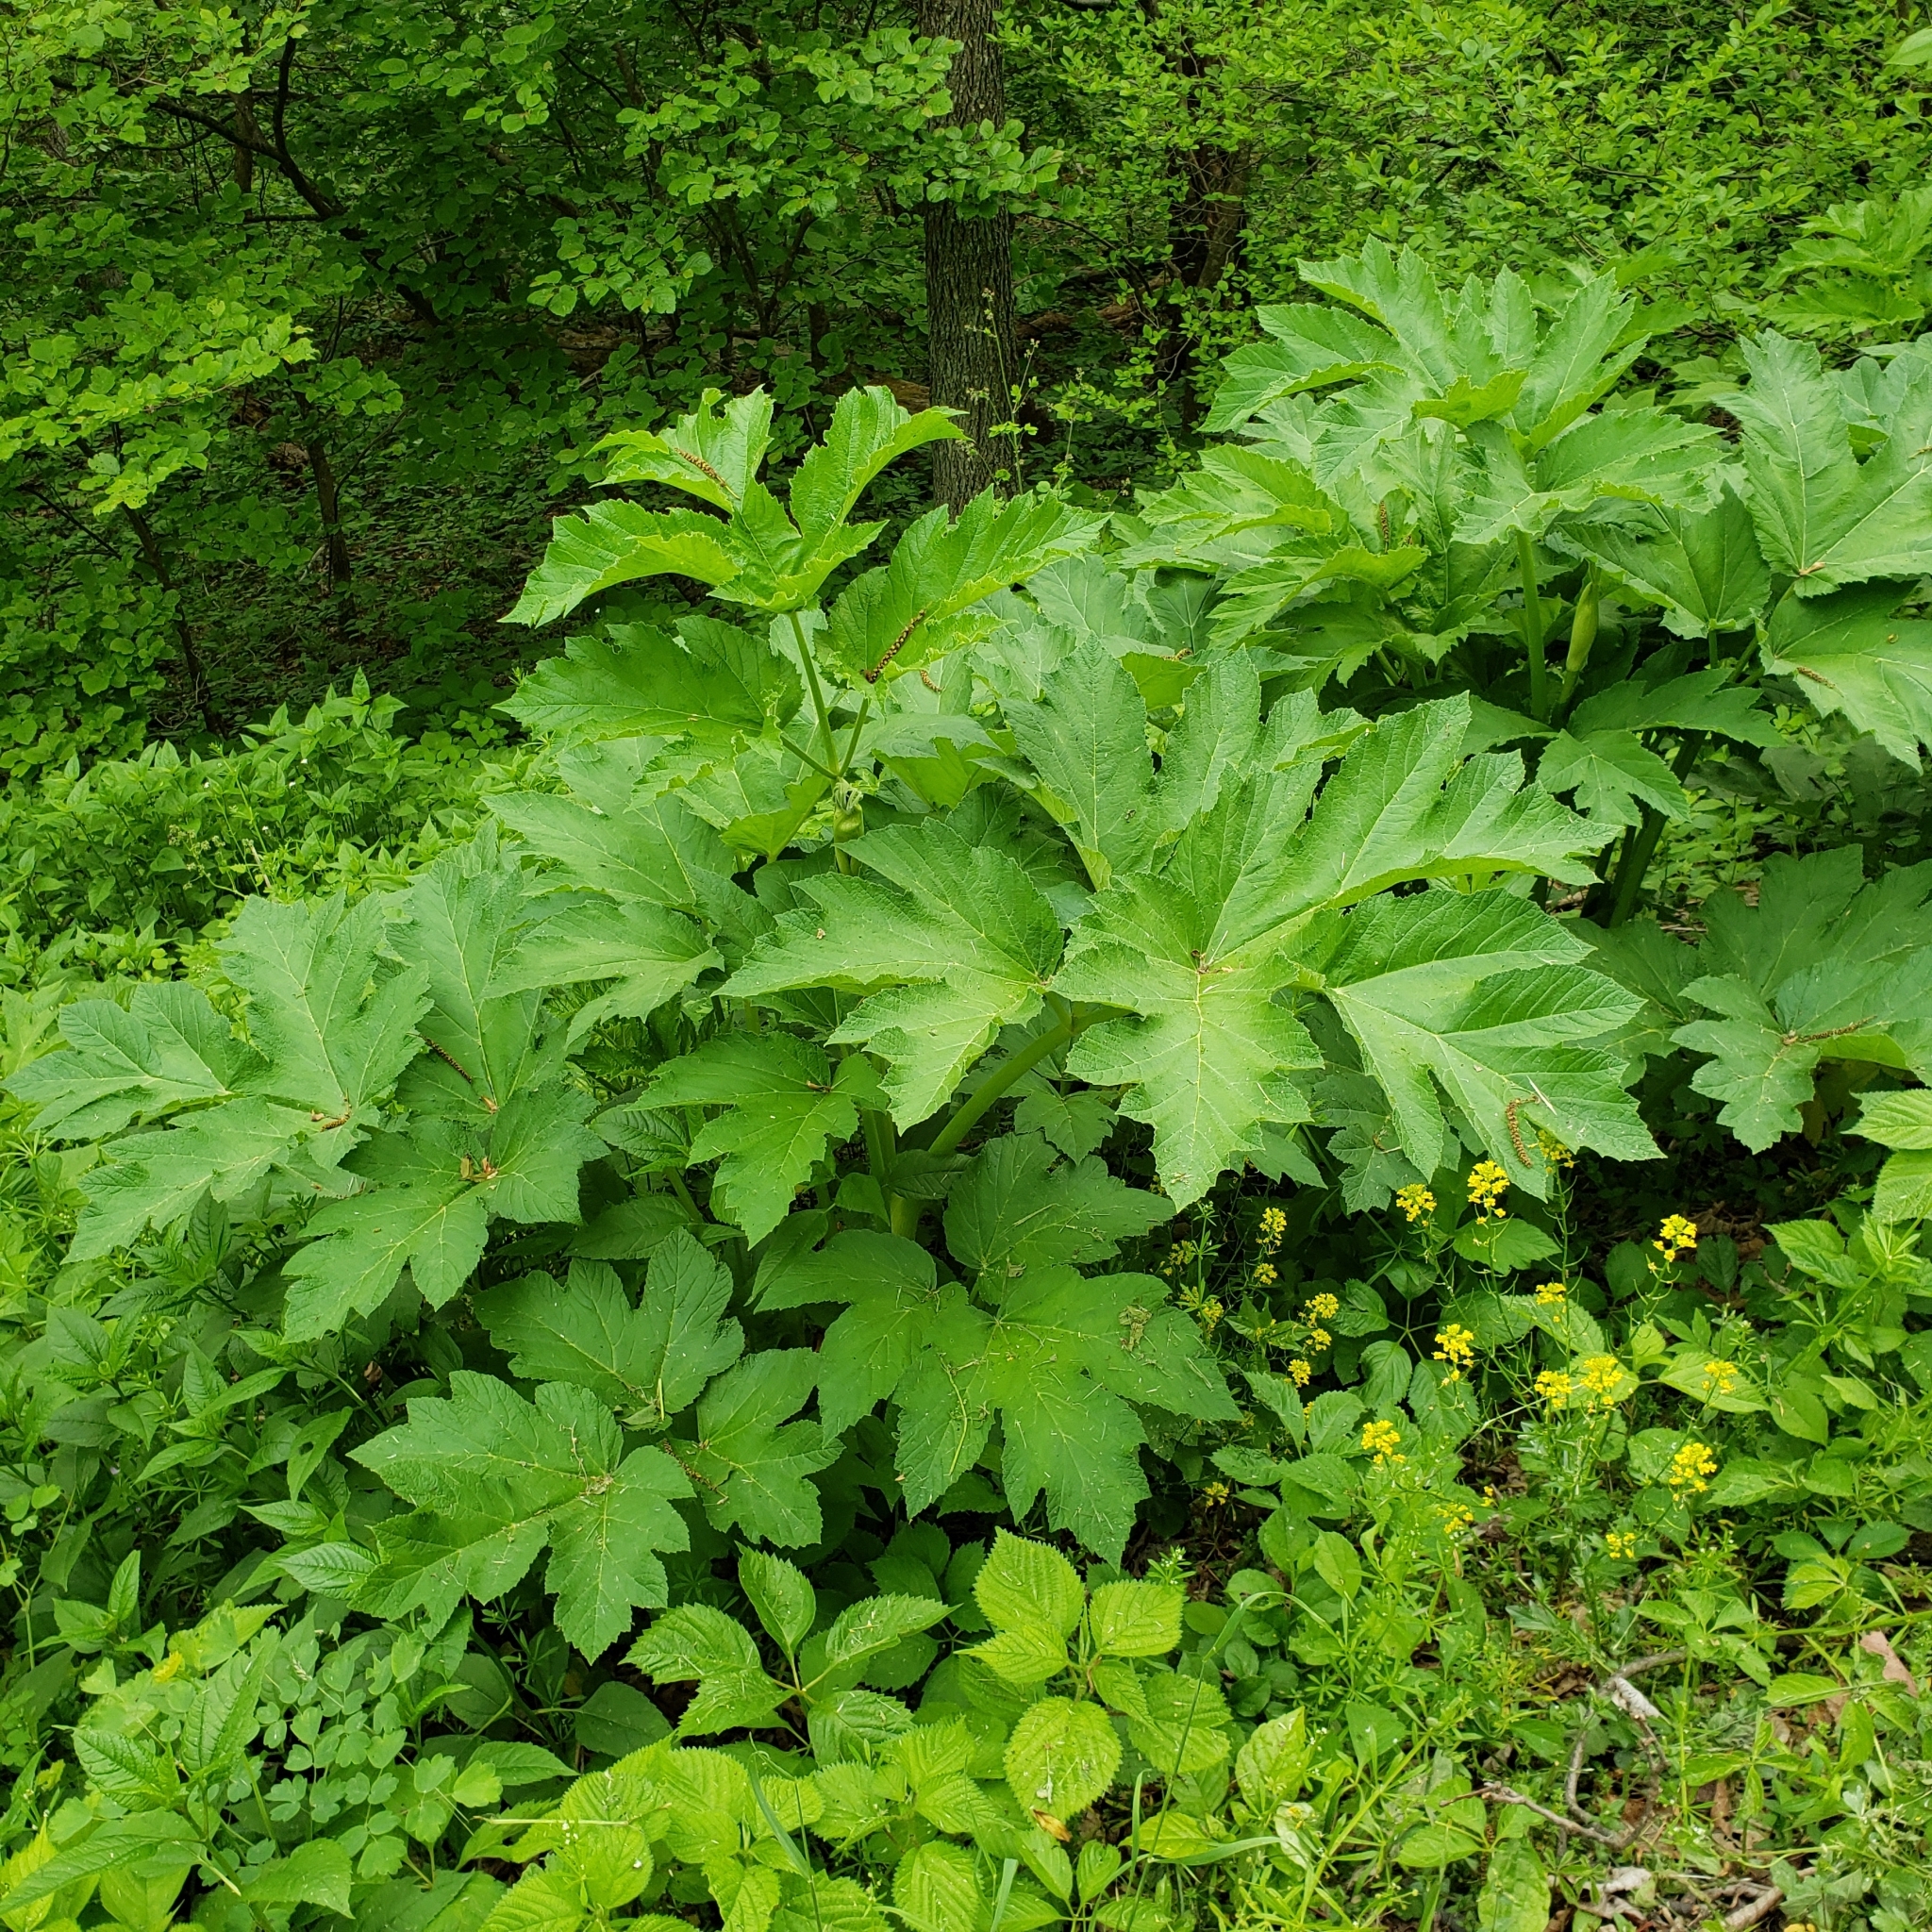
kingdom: Plantae
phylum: Tracheophyta
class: Magnoliopsida
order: Apiales
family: Apiaceae
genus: Heracleum
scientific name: Heracleum maximum
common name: American cow parsnip
